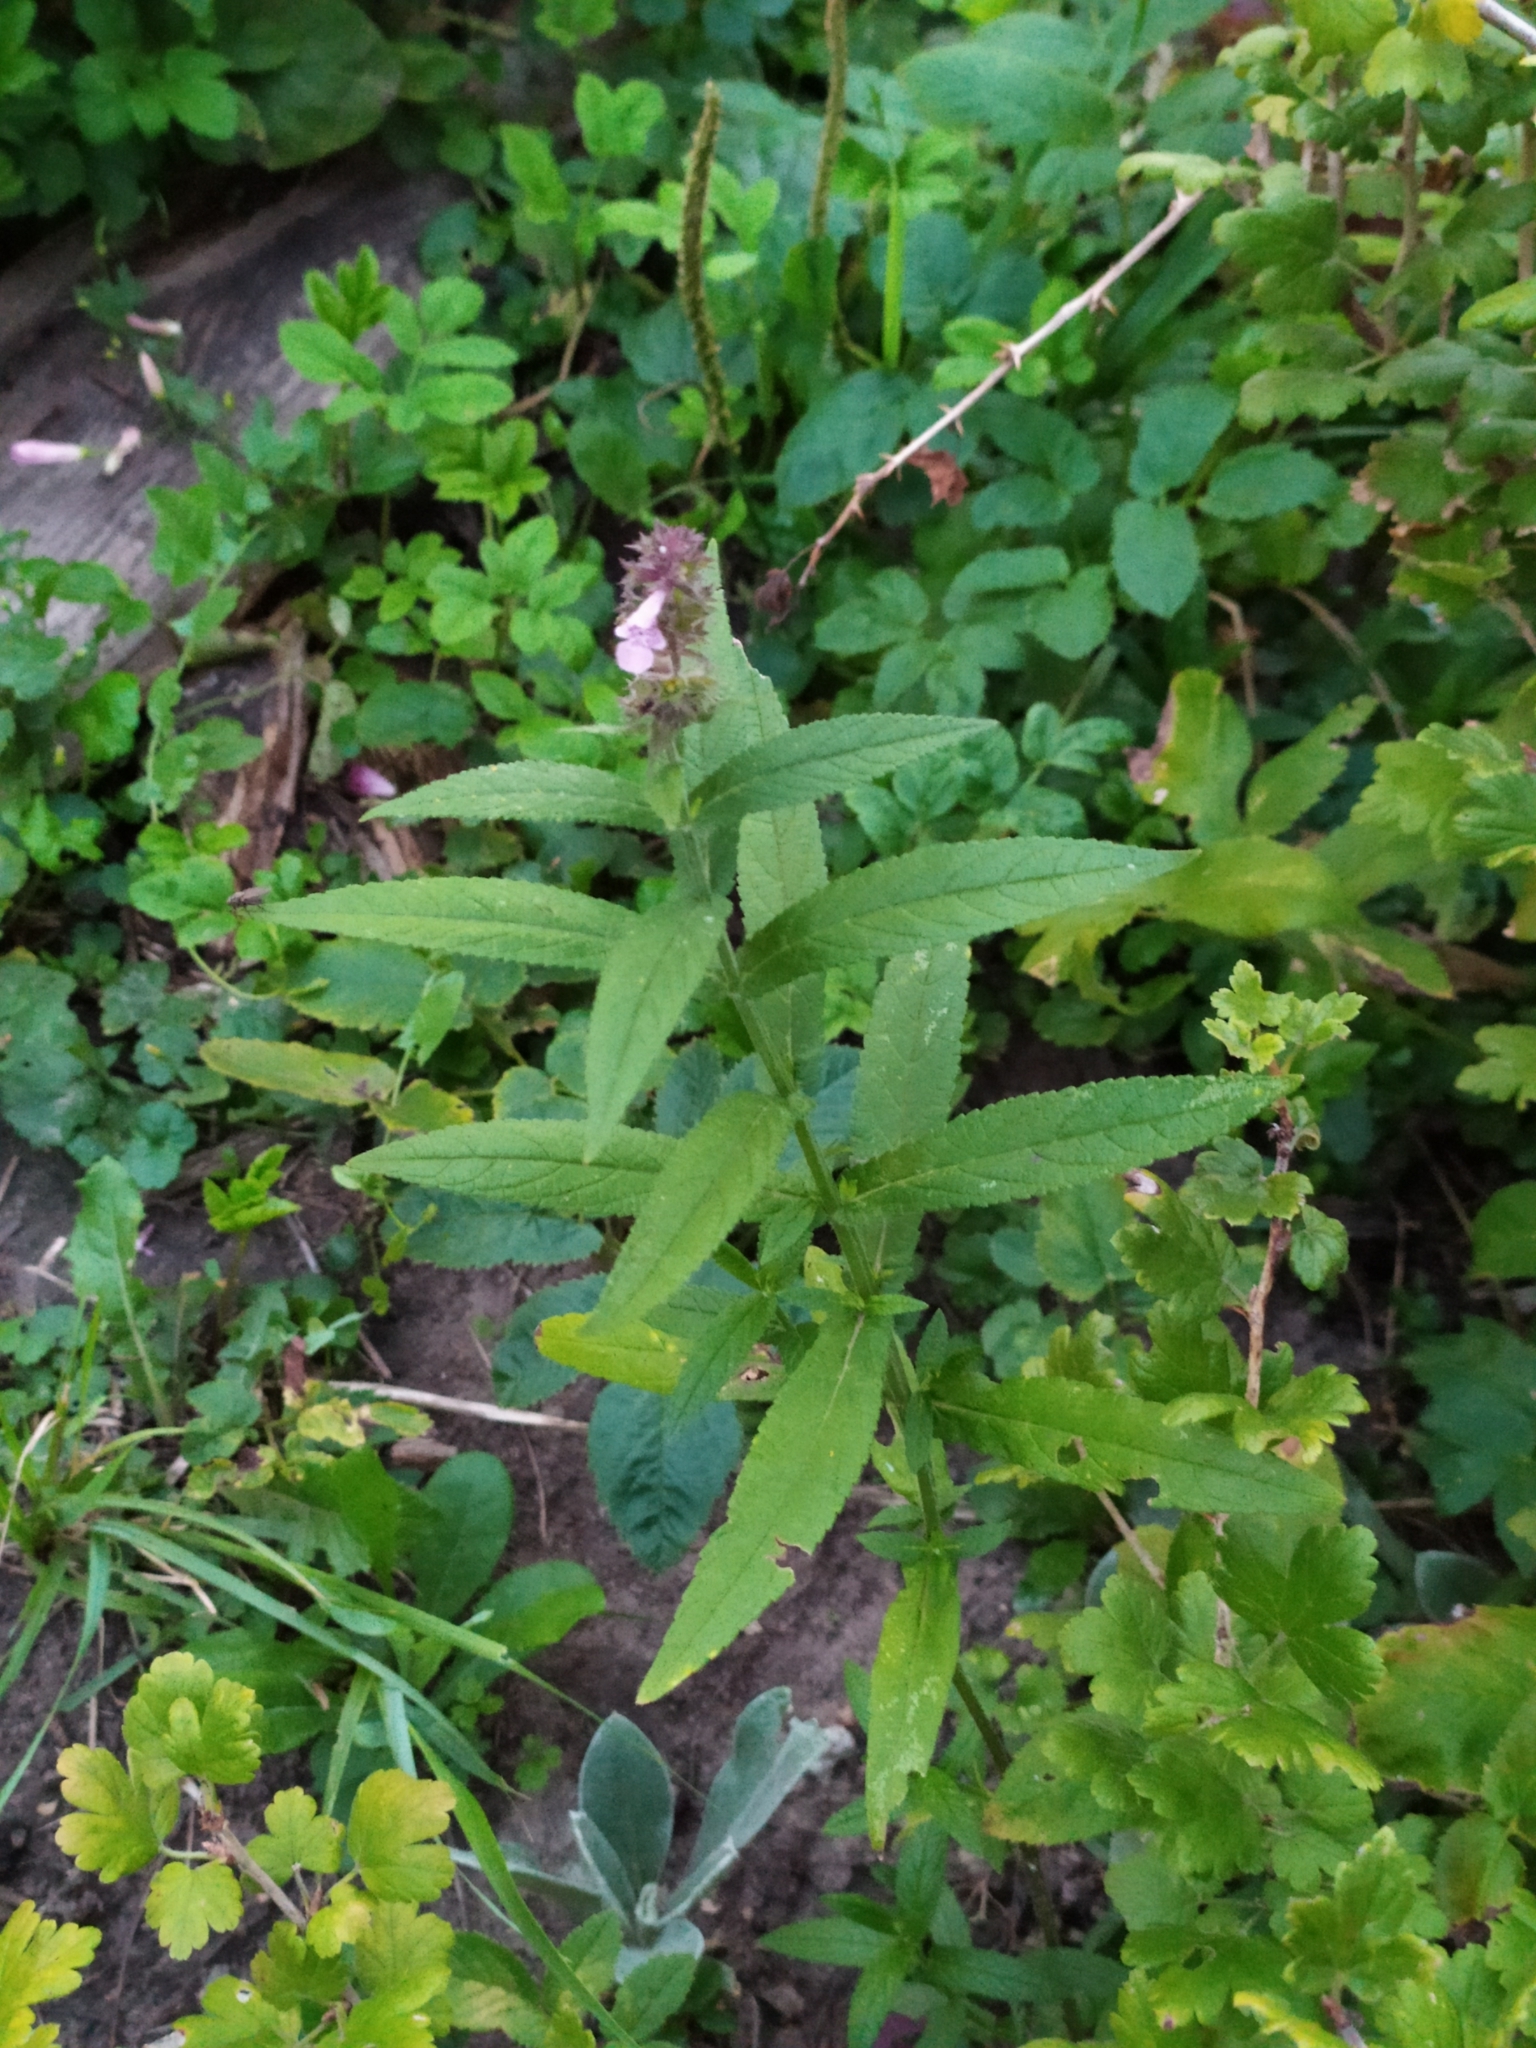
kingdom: Plantae
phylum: Tracheophyta
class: Magnoliopsida
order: Lamiales
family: Lamiaceae
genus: Stachys
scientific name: Stachys palustris
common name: Marsh woundwort
